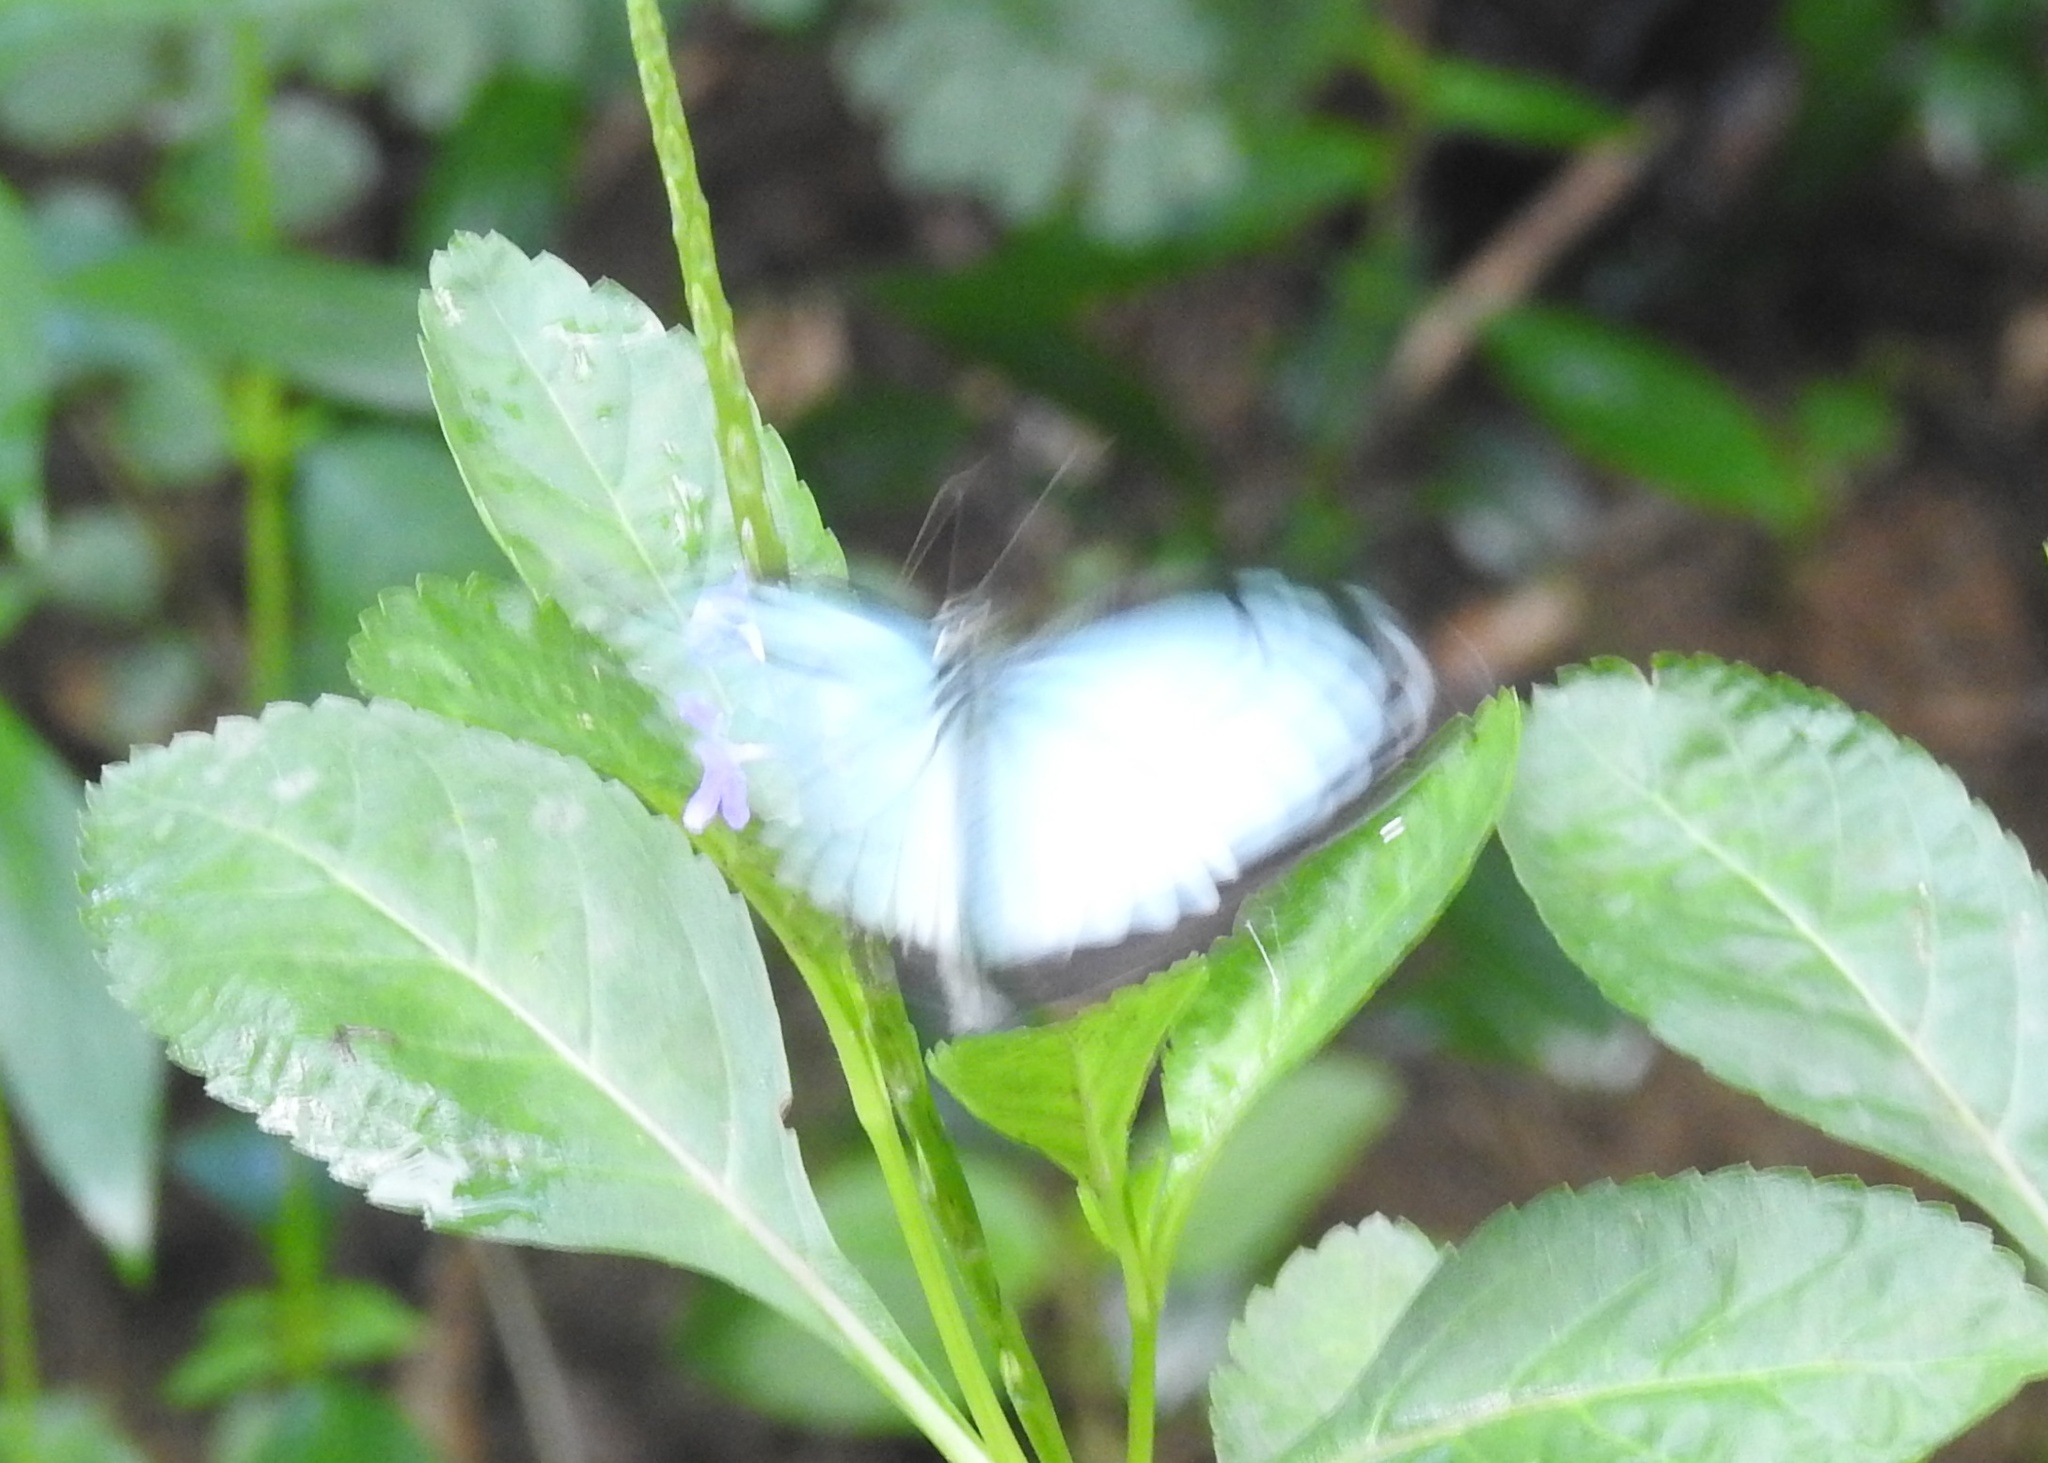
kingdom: Animalia
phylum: Arthropoda
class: Insecta
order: Lepidoptera
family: Pieridae
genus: Pareronia
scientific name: Pareronia hippia
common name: Indian wanderer
